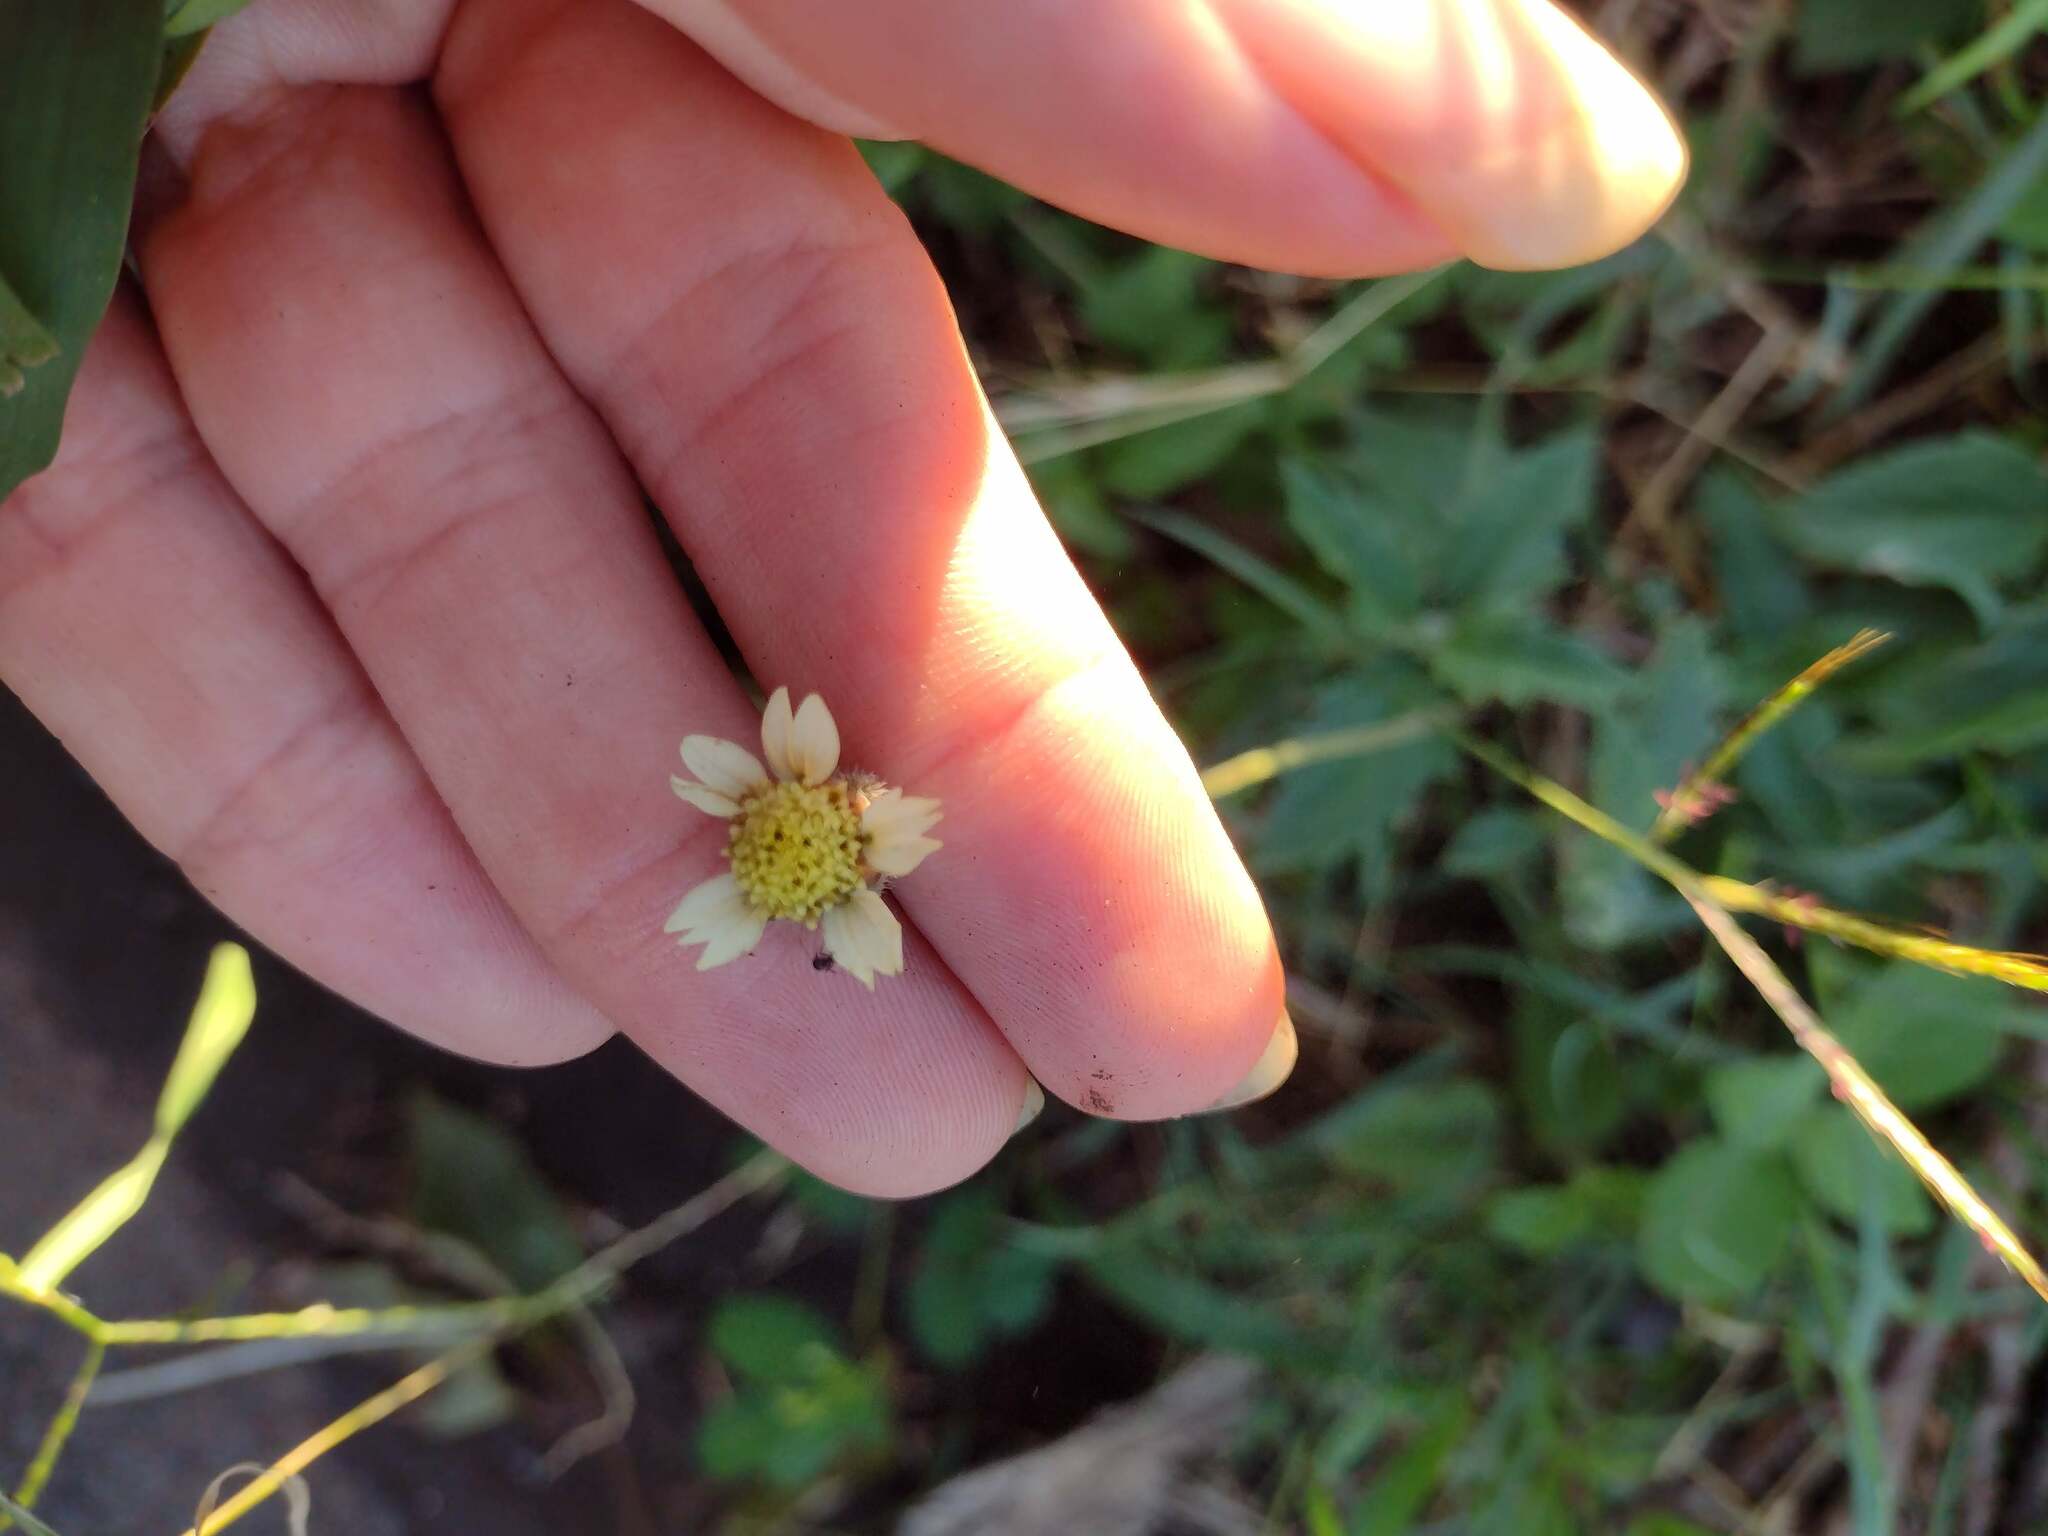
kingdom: Plantae
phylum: Tracheophyta
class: Magnoliopsida
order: Asterales
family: Asteraceae
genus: Tridax
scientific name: Tridax procumbens
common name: Coatbuttons
